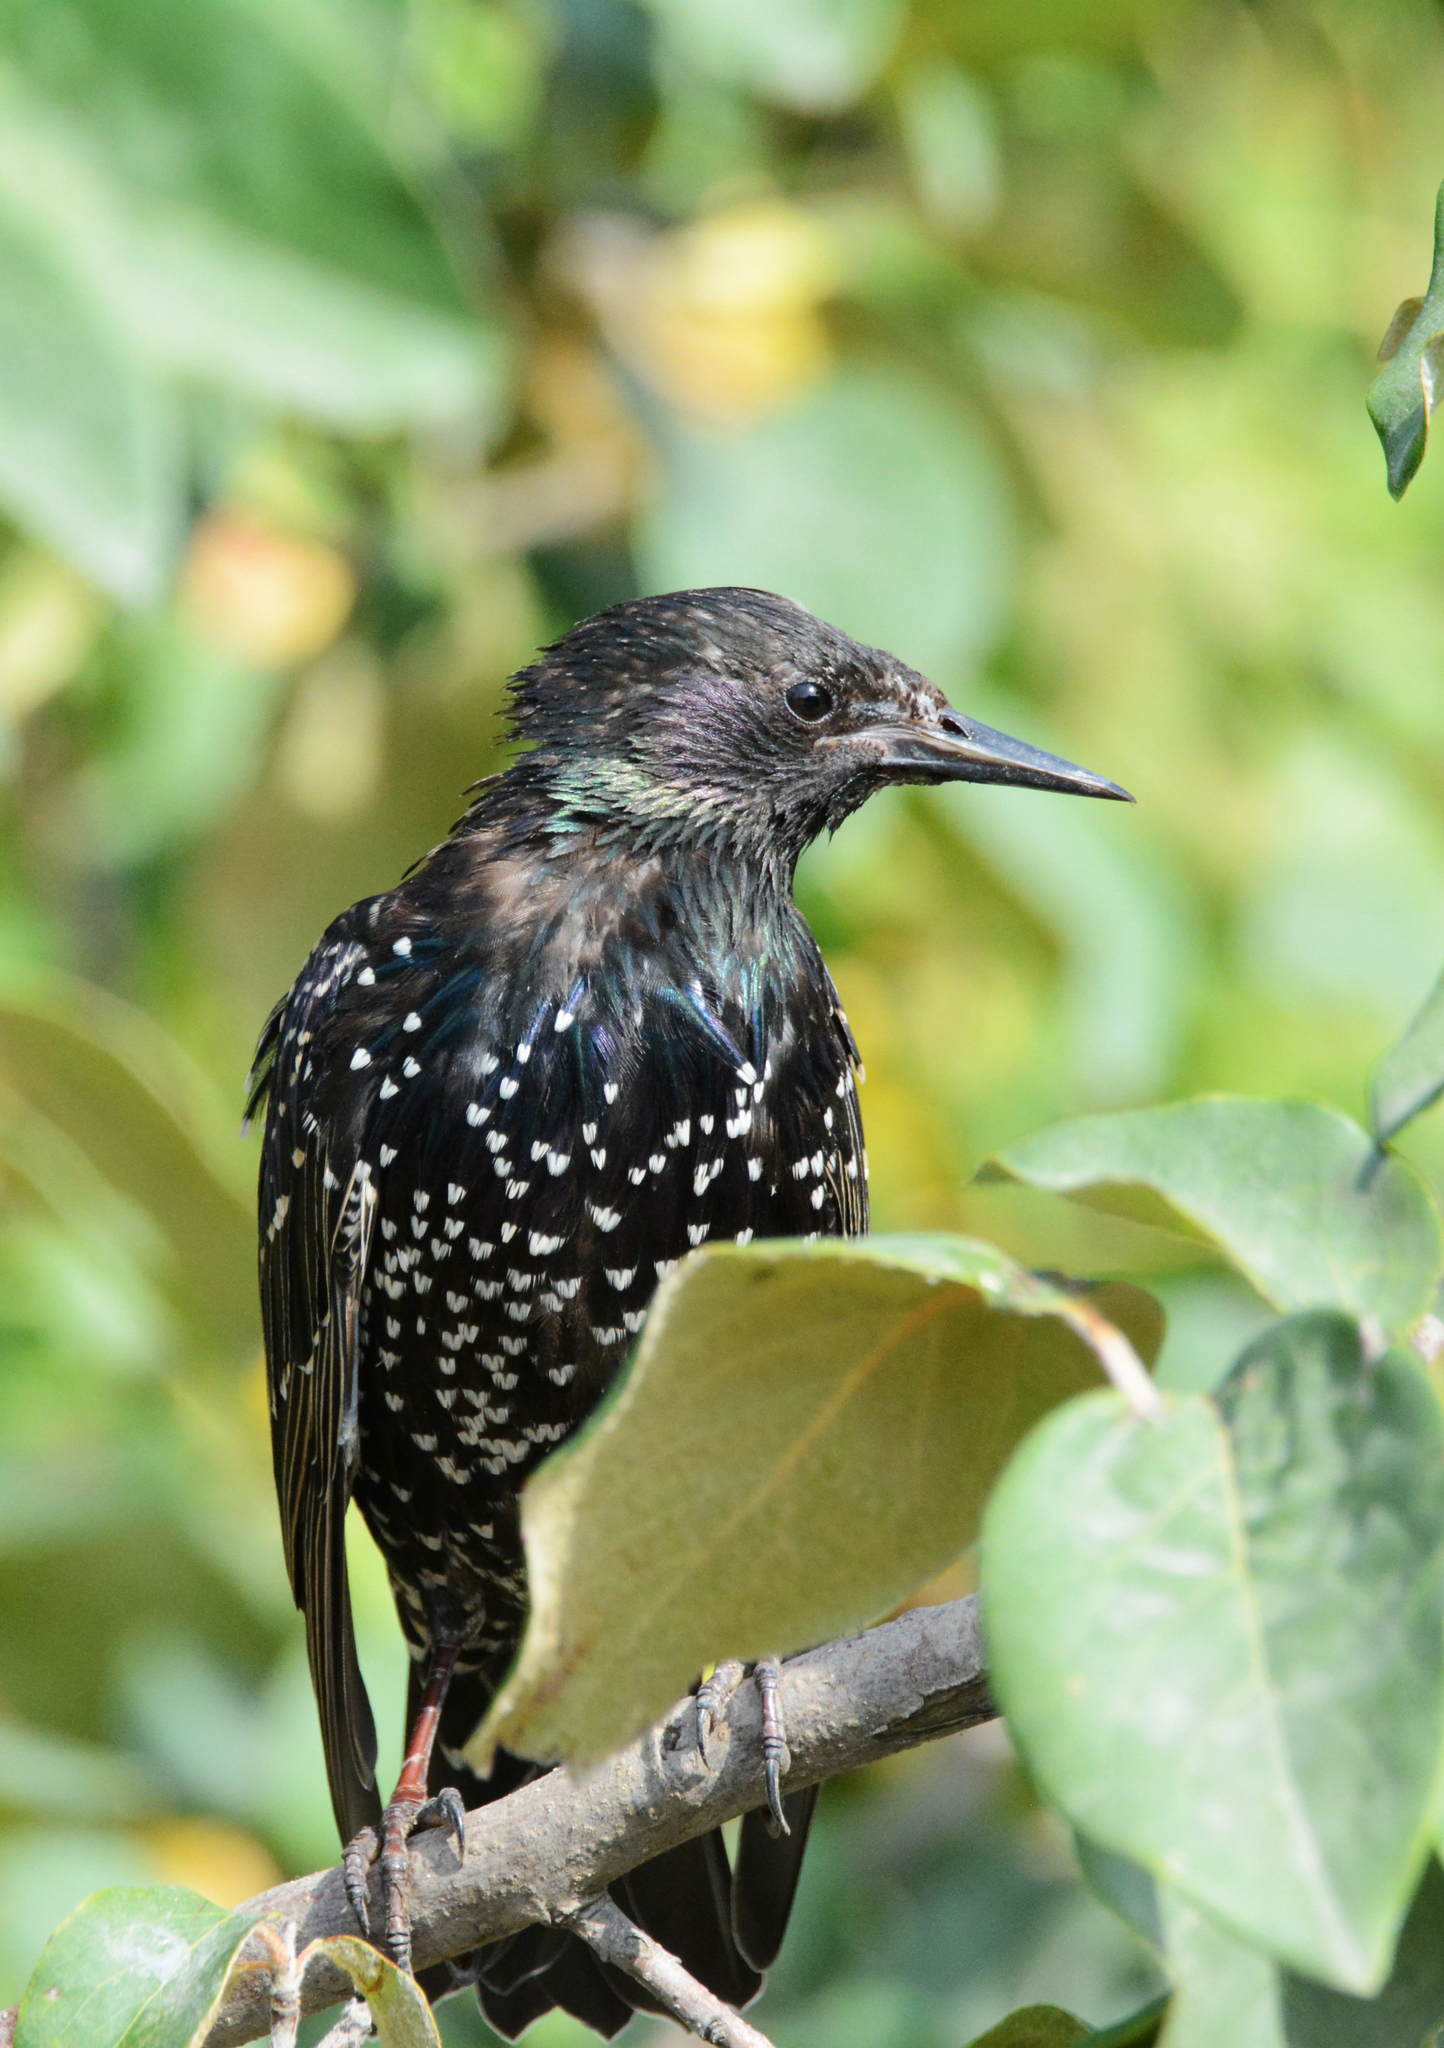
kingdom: Animalia
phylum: Chordata
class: Aves
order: Passeriformes
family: Sturnidae
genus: Sturnus
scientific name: Sturnus vulgaris
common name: Common starling
